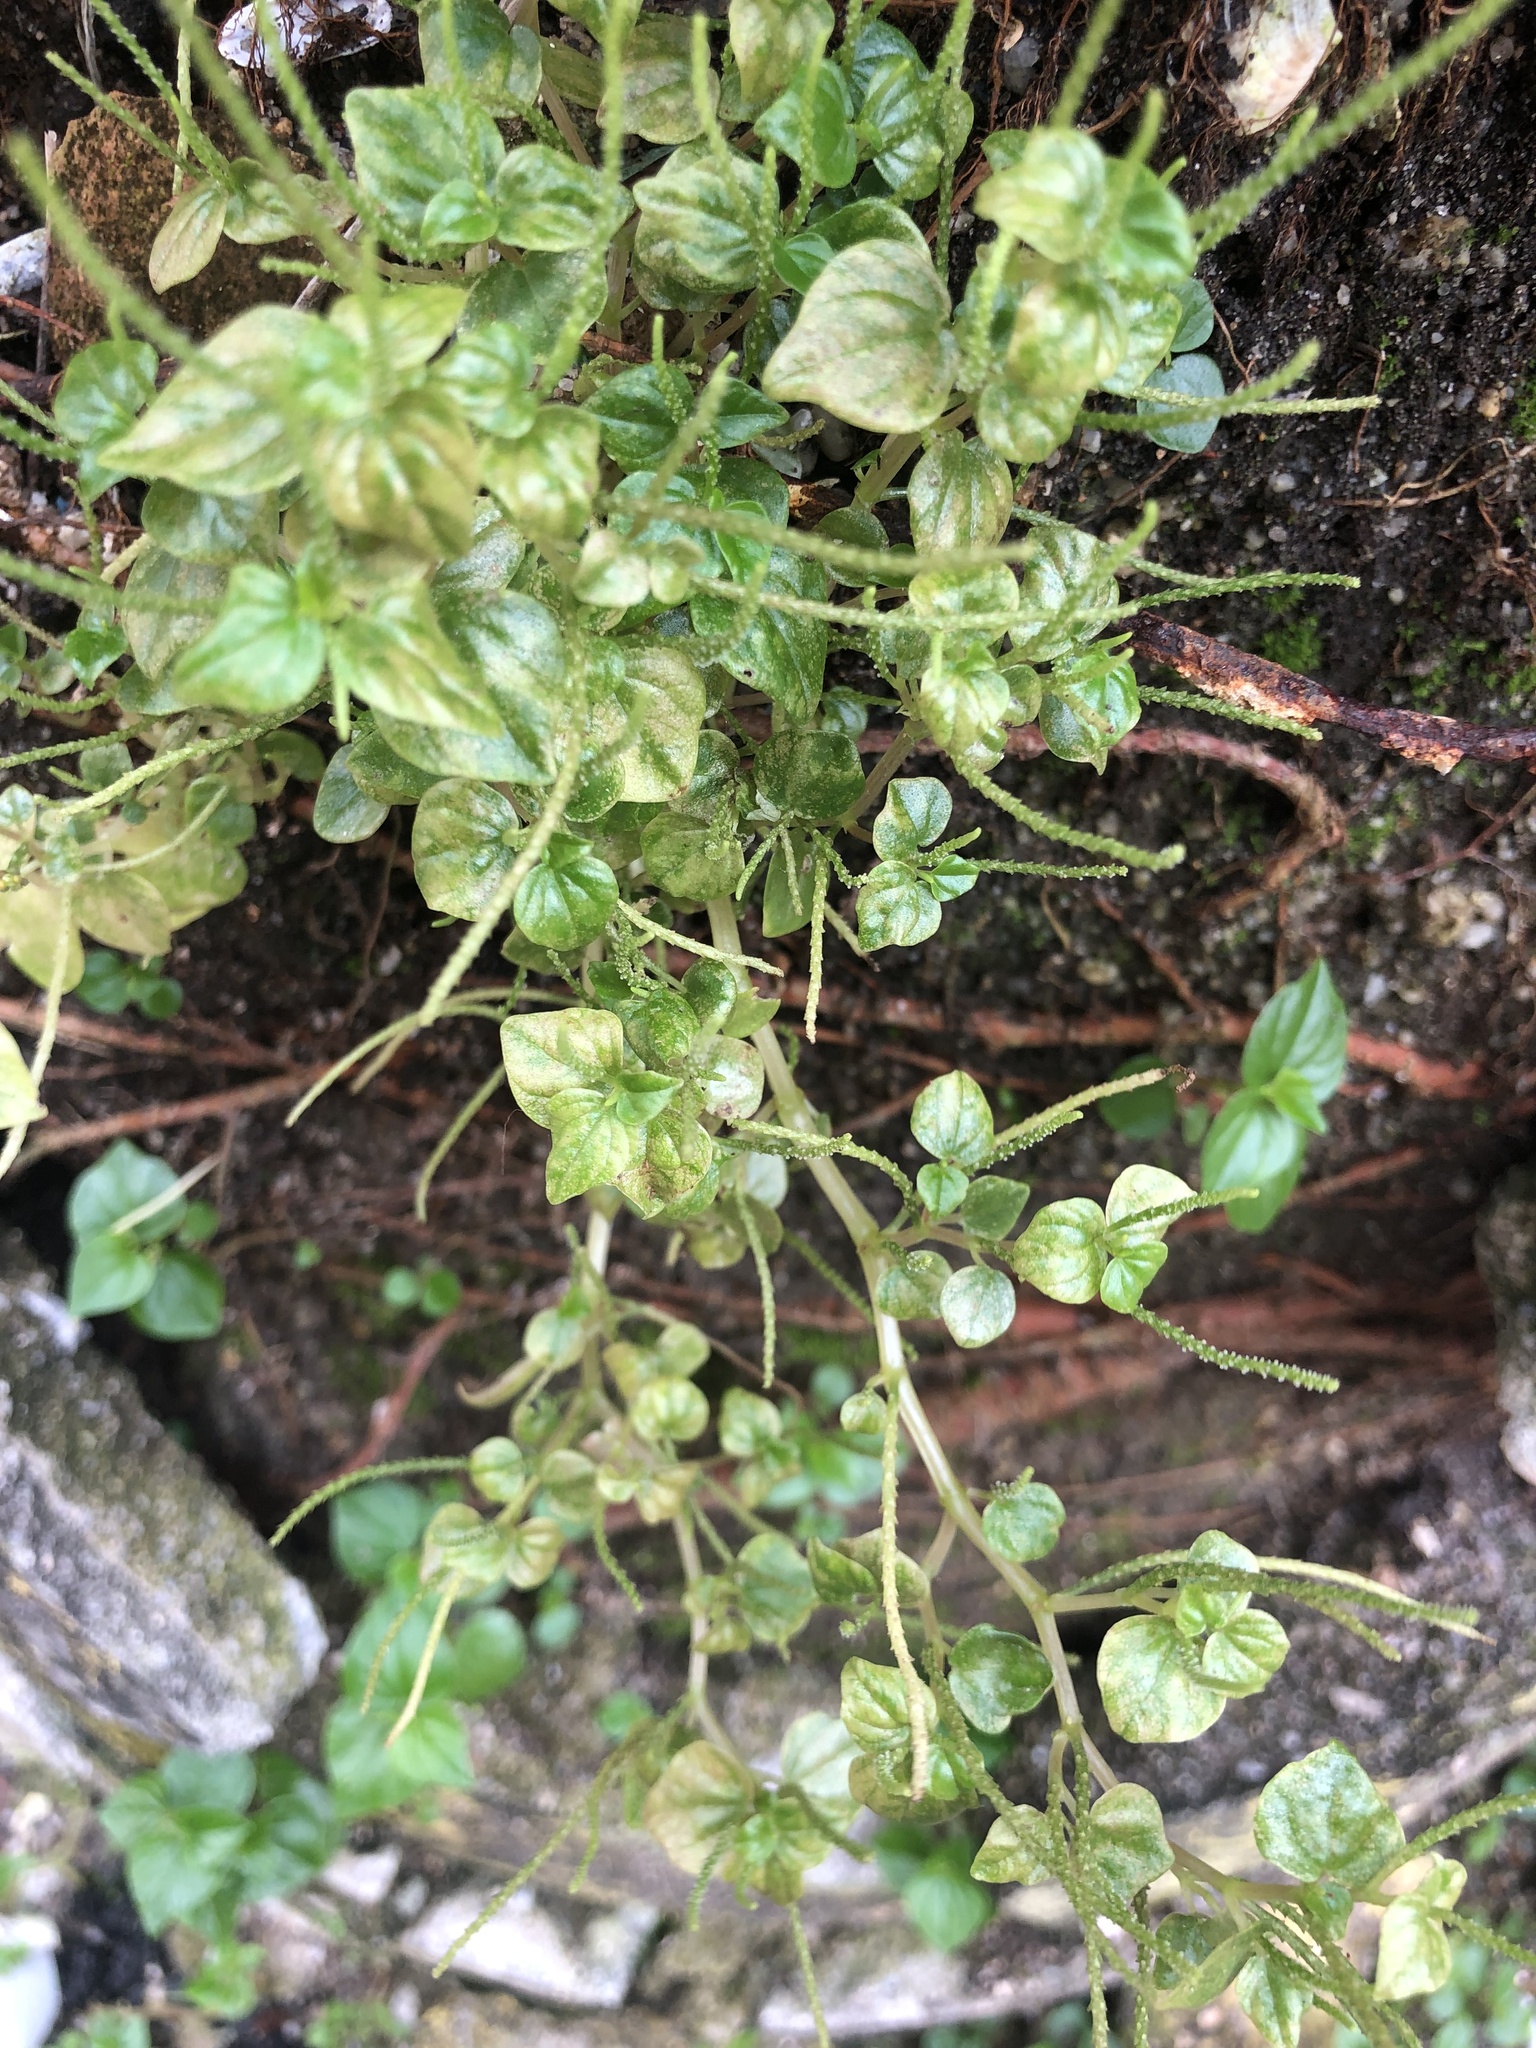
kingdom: Plantae
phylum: Tracheophyta
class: Magnoliopsida
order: Piperales
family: Piperaceae
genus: Peperomia
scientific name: Peperomia pellucida
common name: Man to man
